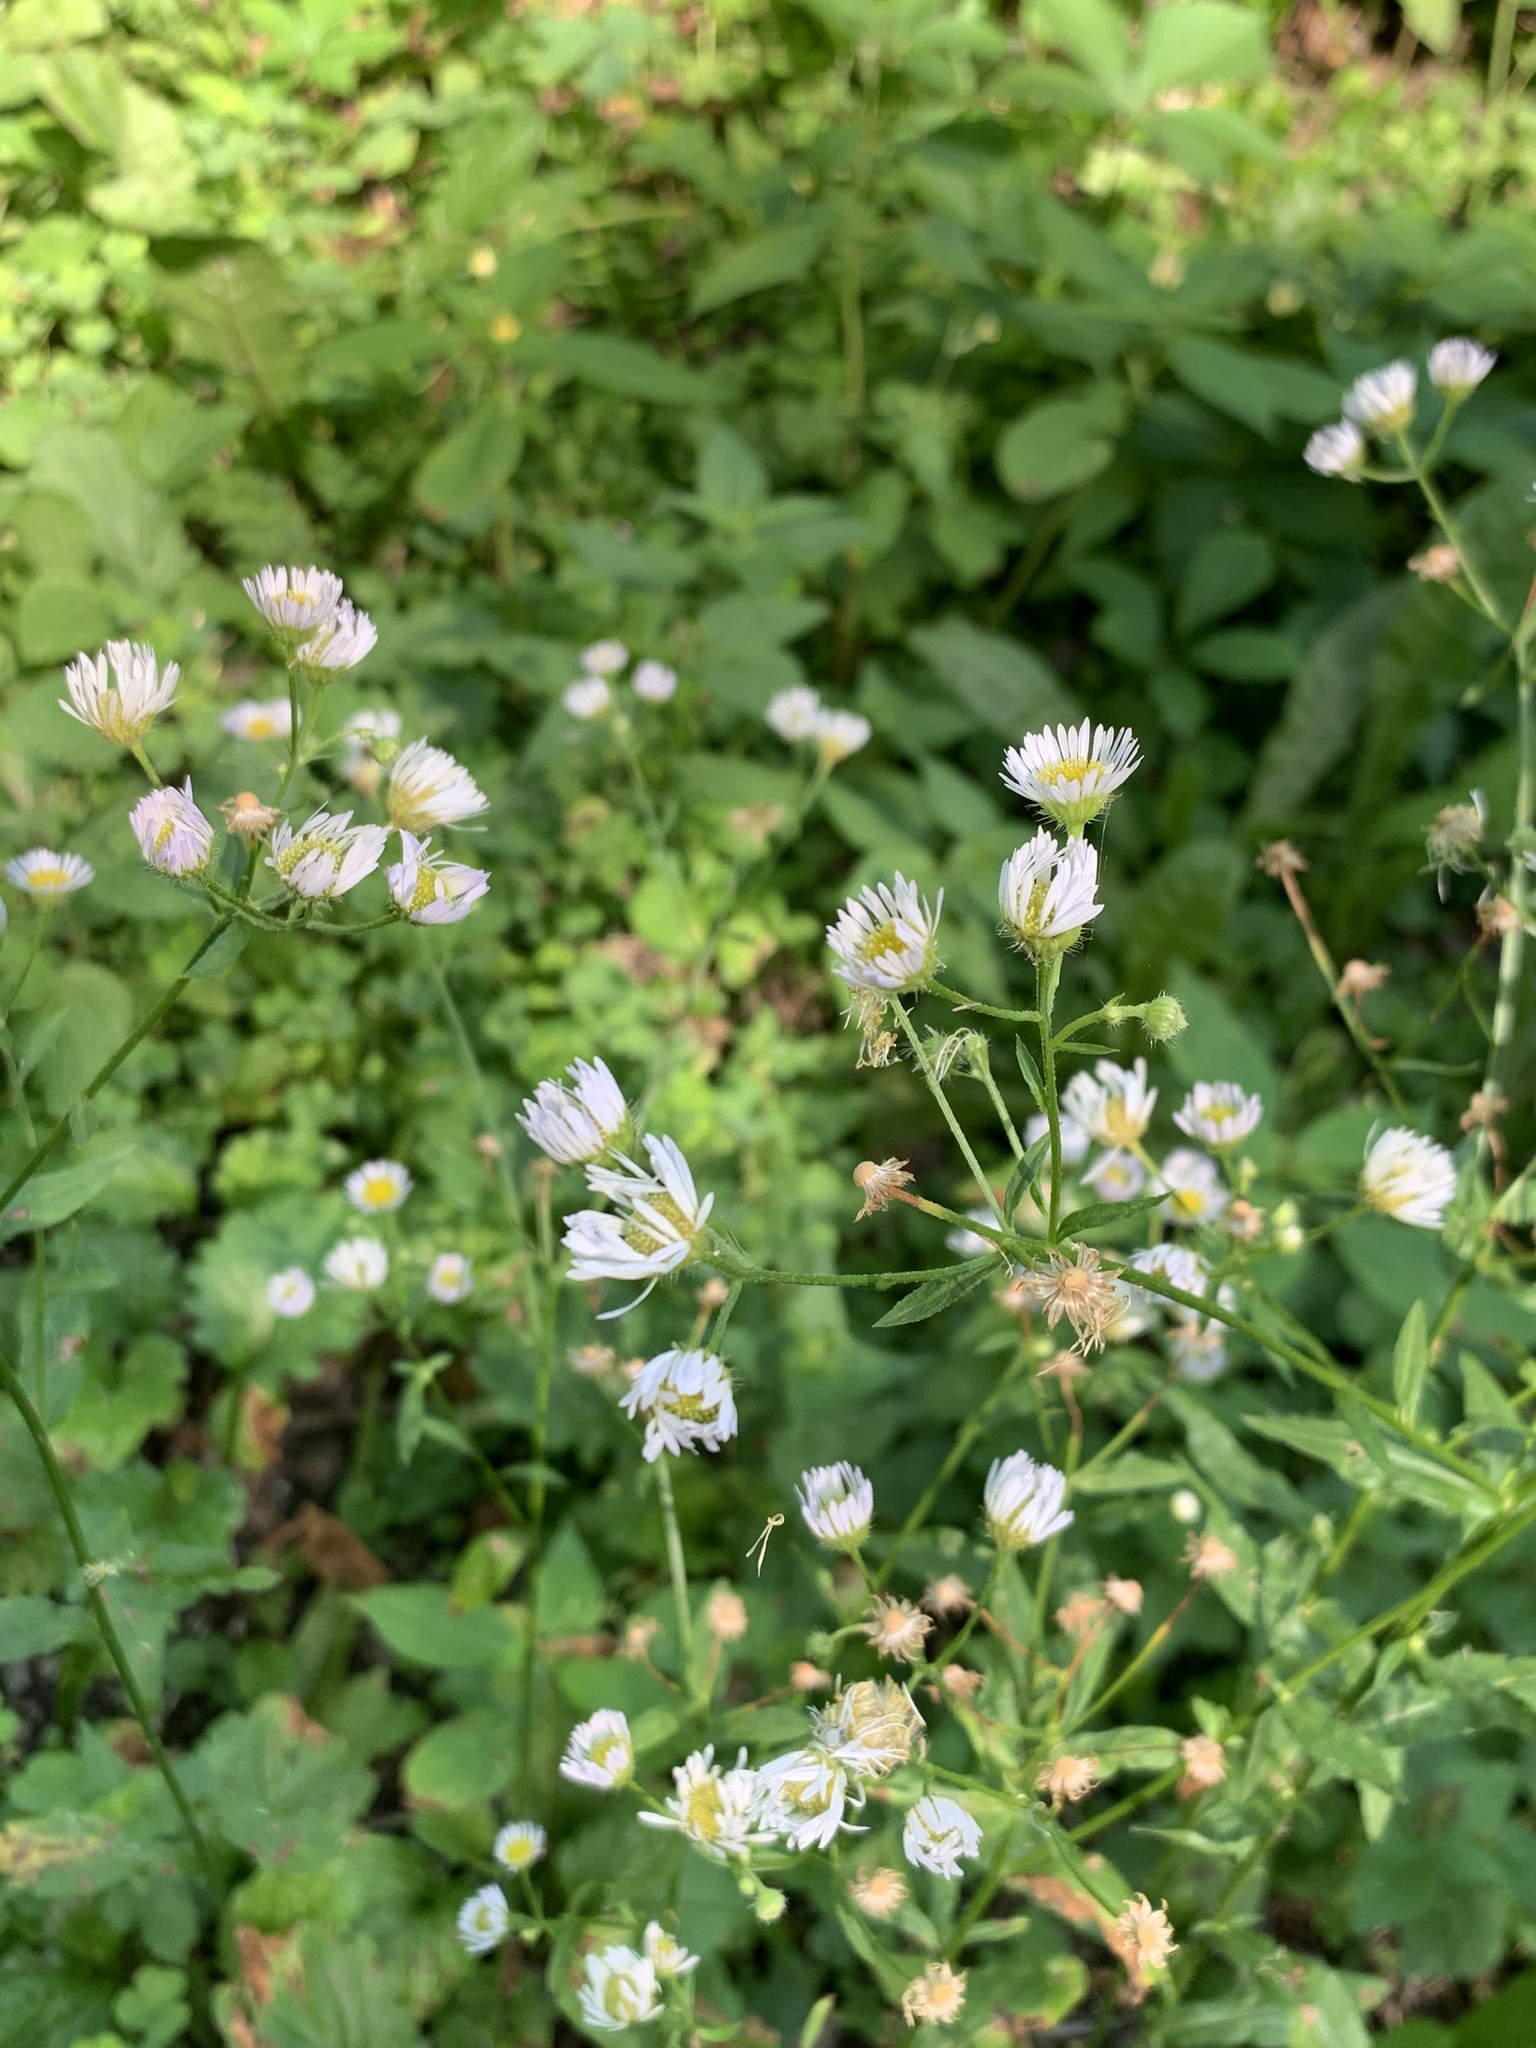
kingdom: Plantae
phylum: Tracheophyta
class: Magnoliopsida
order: Asterales
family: Asteraceae
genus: Erigeron
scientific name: Erigeron annuus
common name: Tall fleabane
